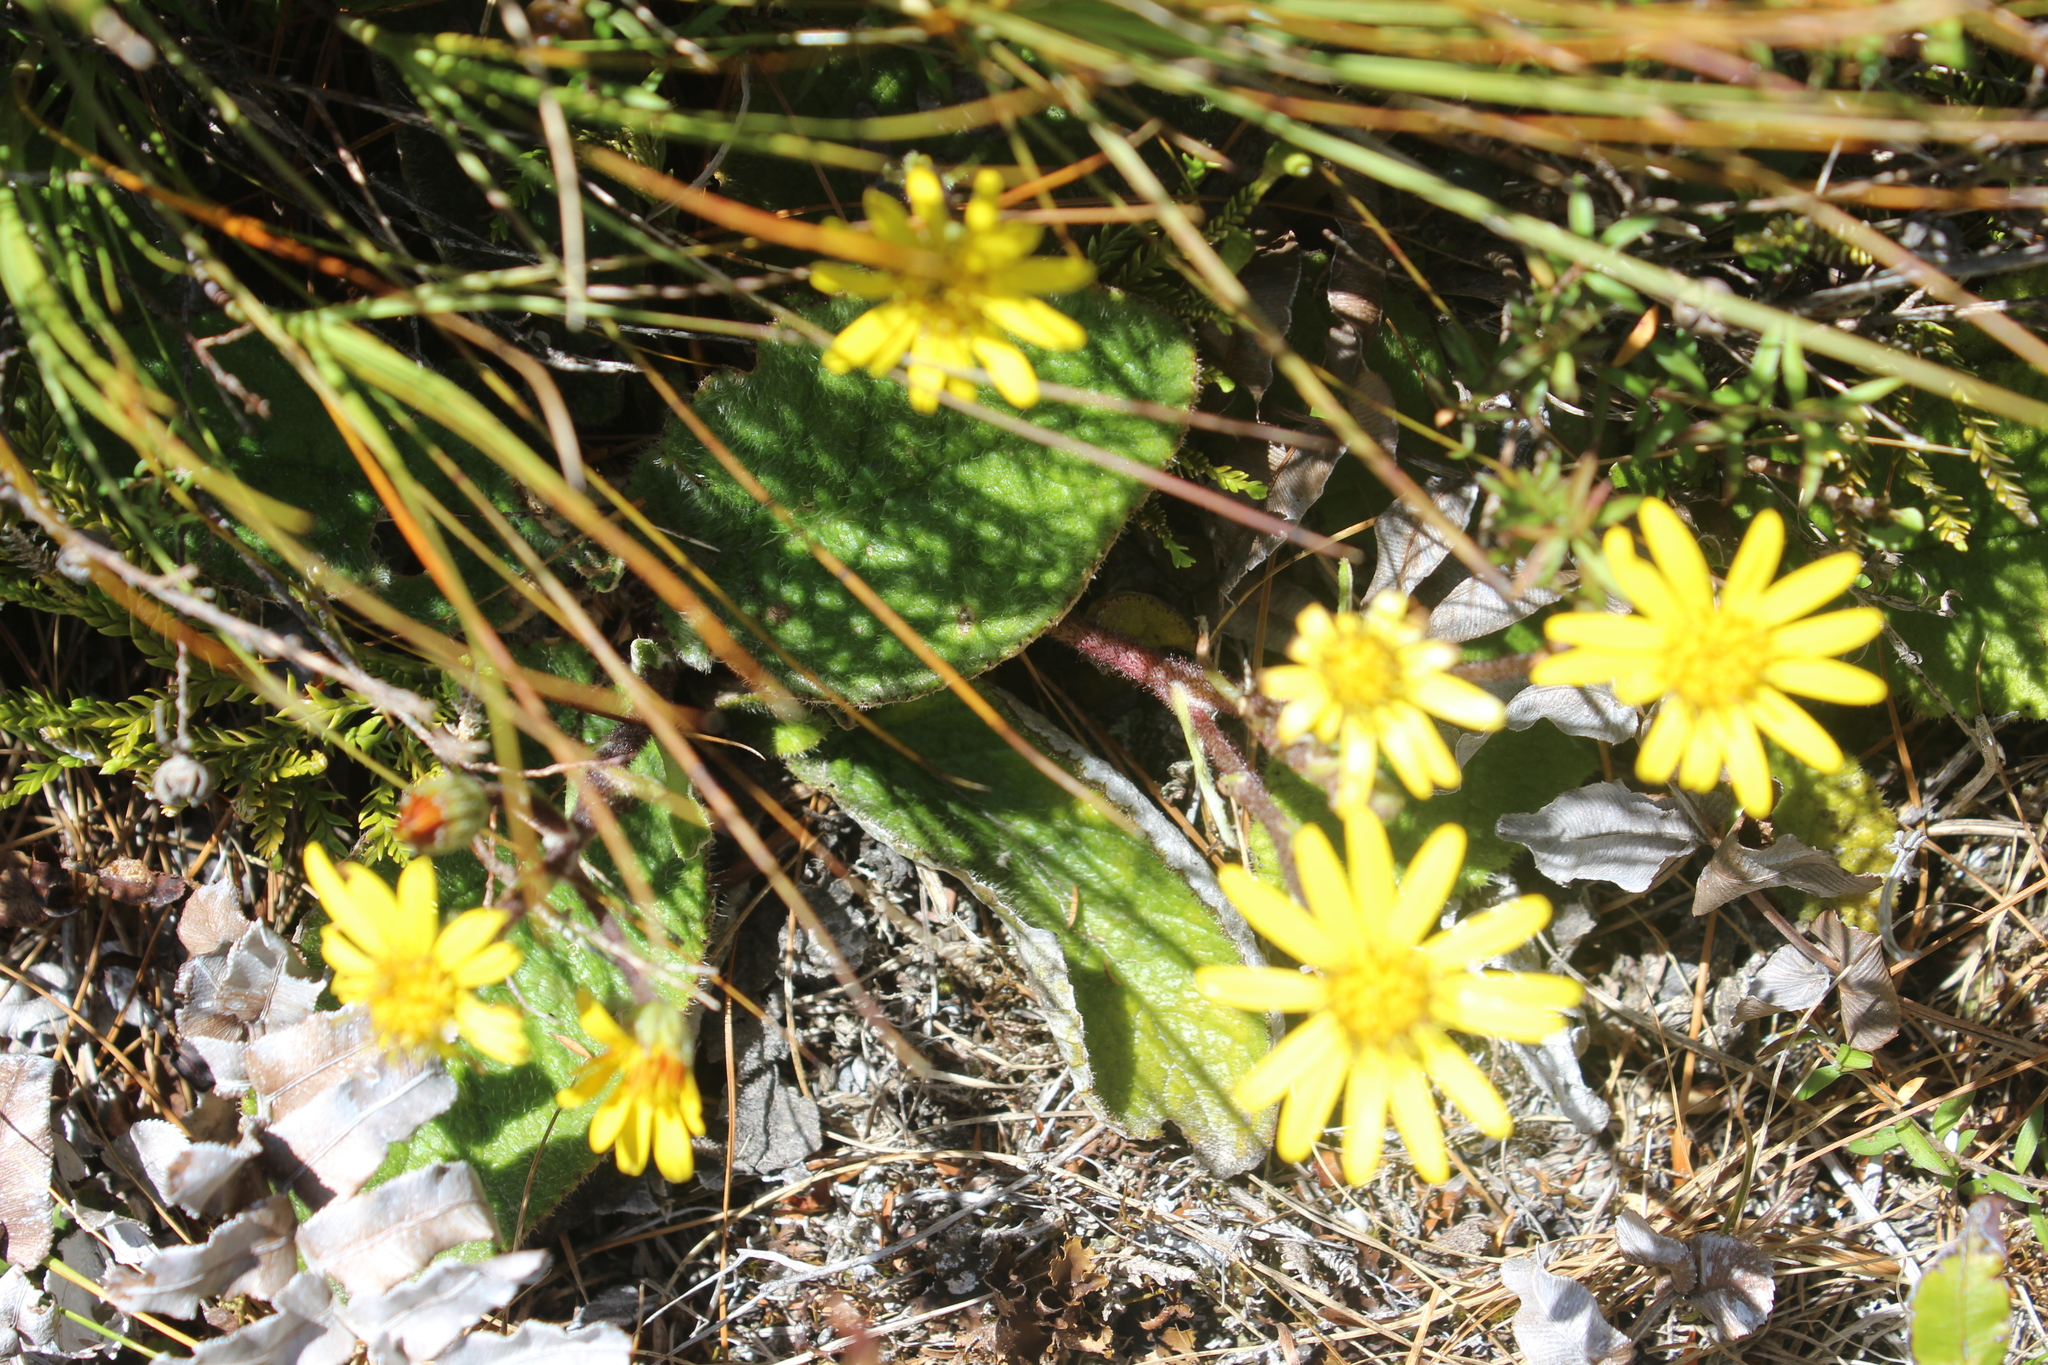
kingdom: Plantae
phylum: Tracheophyta
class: Magnoliopsida
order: Asterales
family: Asteraceae
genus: Brachyglottis
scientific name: Brachyglottis lagopus
